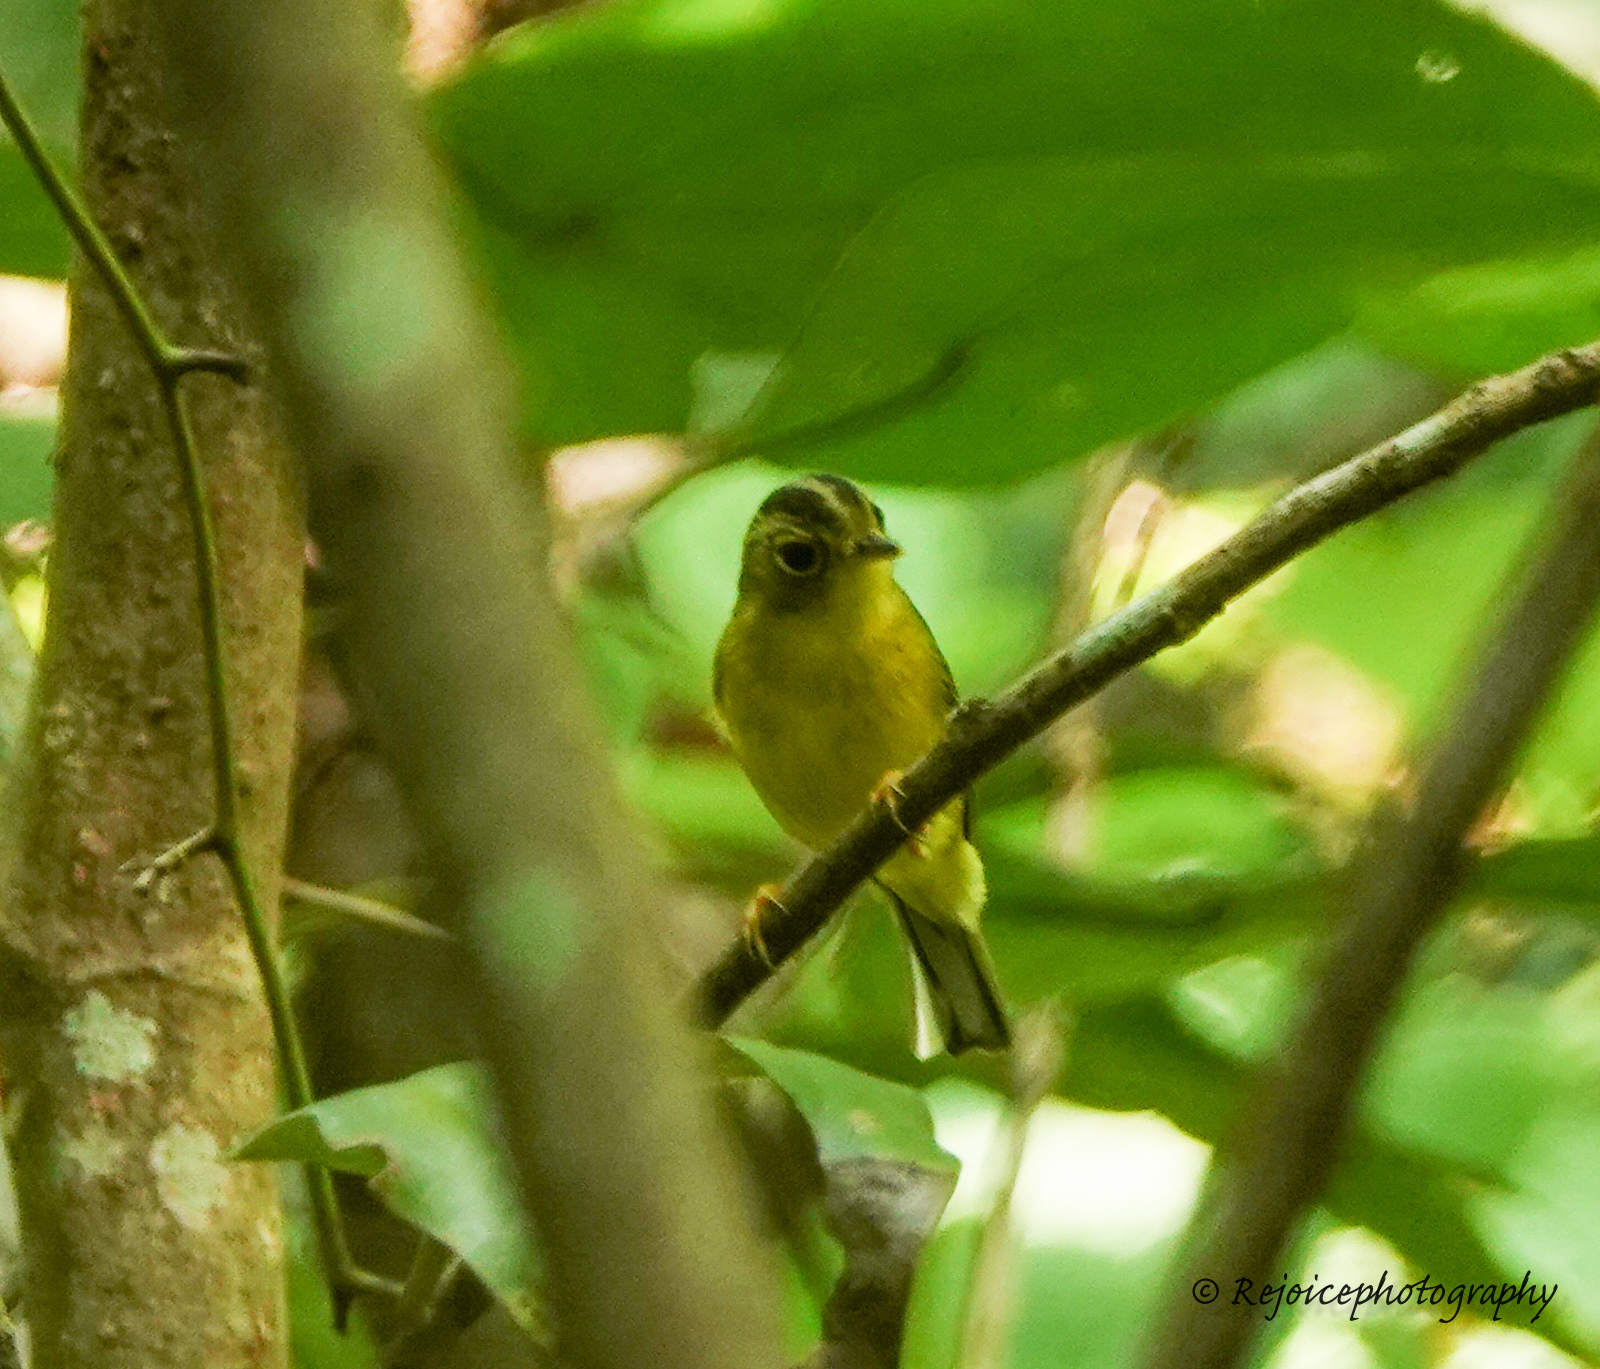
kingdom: Animalia
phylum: Chordata
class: Aves
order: Passeriformes
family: Phylloscopidae
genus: Seicercus
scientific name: Seicercus burkii
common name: Green-crowned warbler
